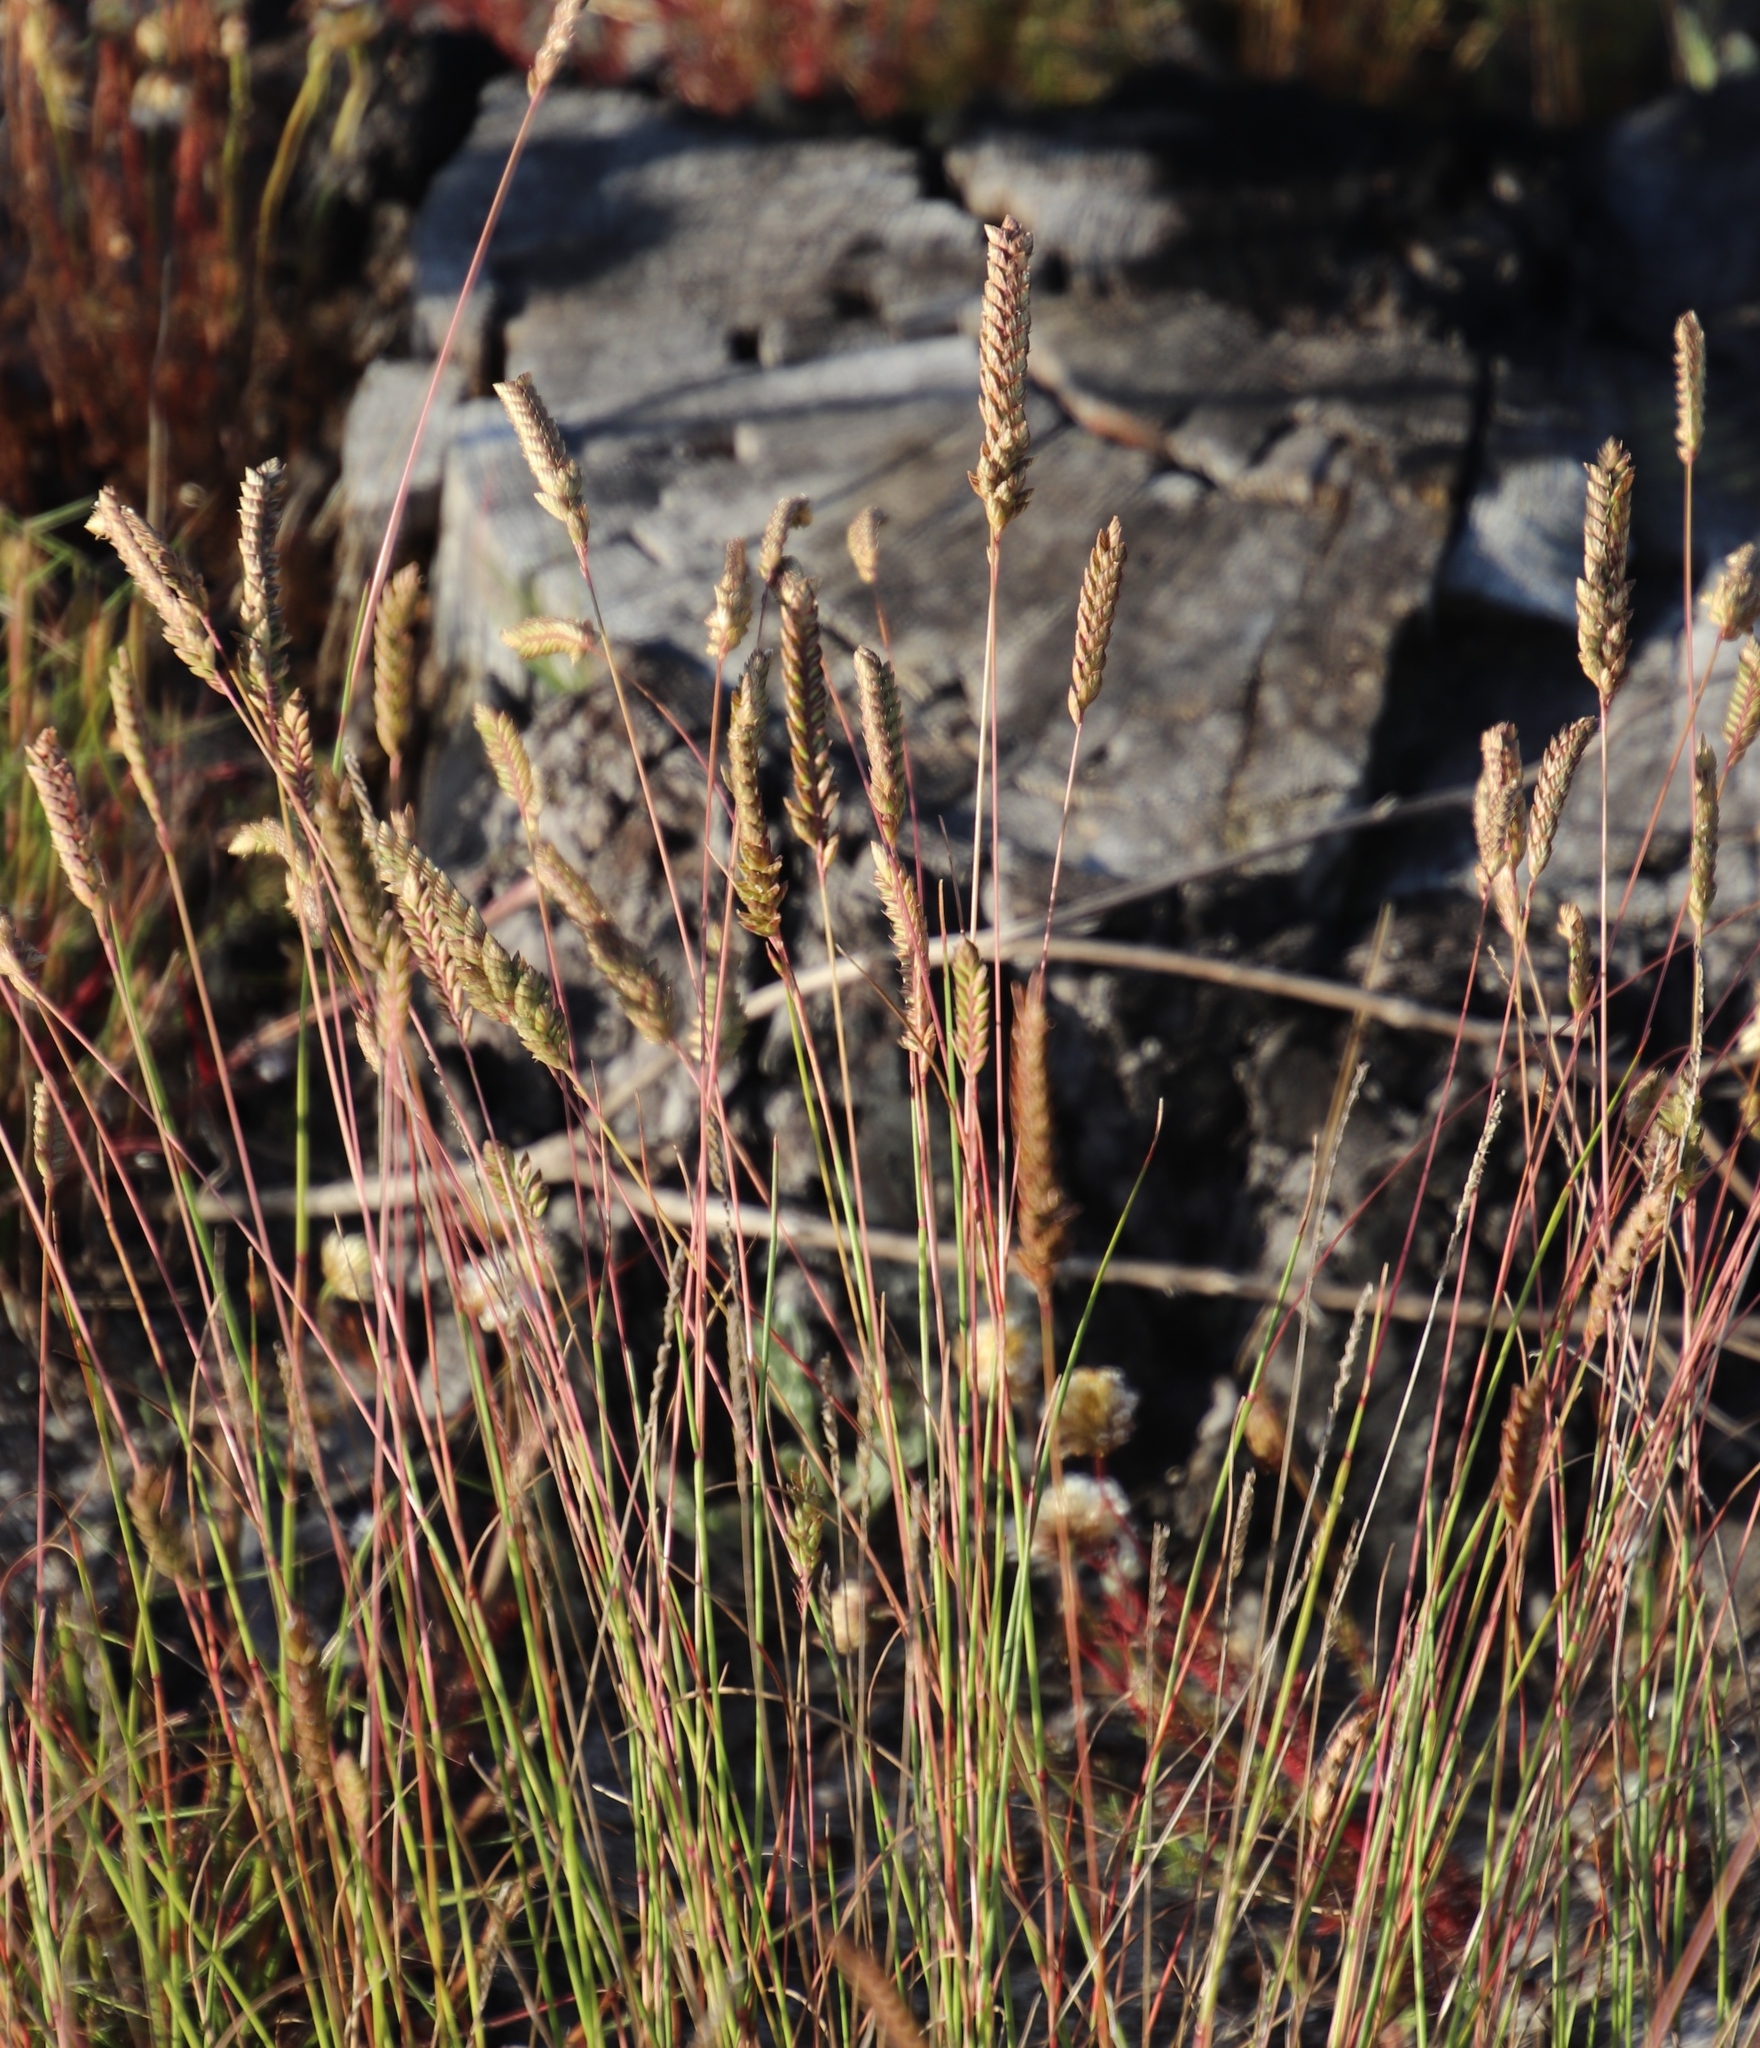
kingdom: Plantae
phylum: Tracheophyta
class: Liliopsida
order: Poales
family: Poaceae
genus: Tribolium
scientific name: Tribolium uniolae
